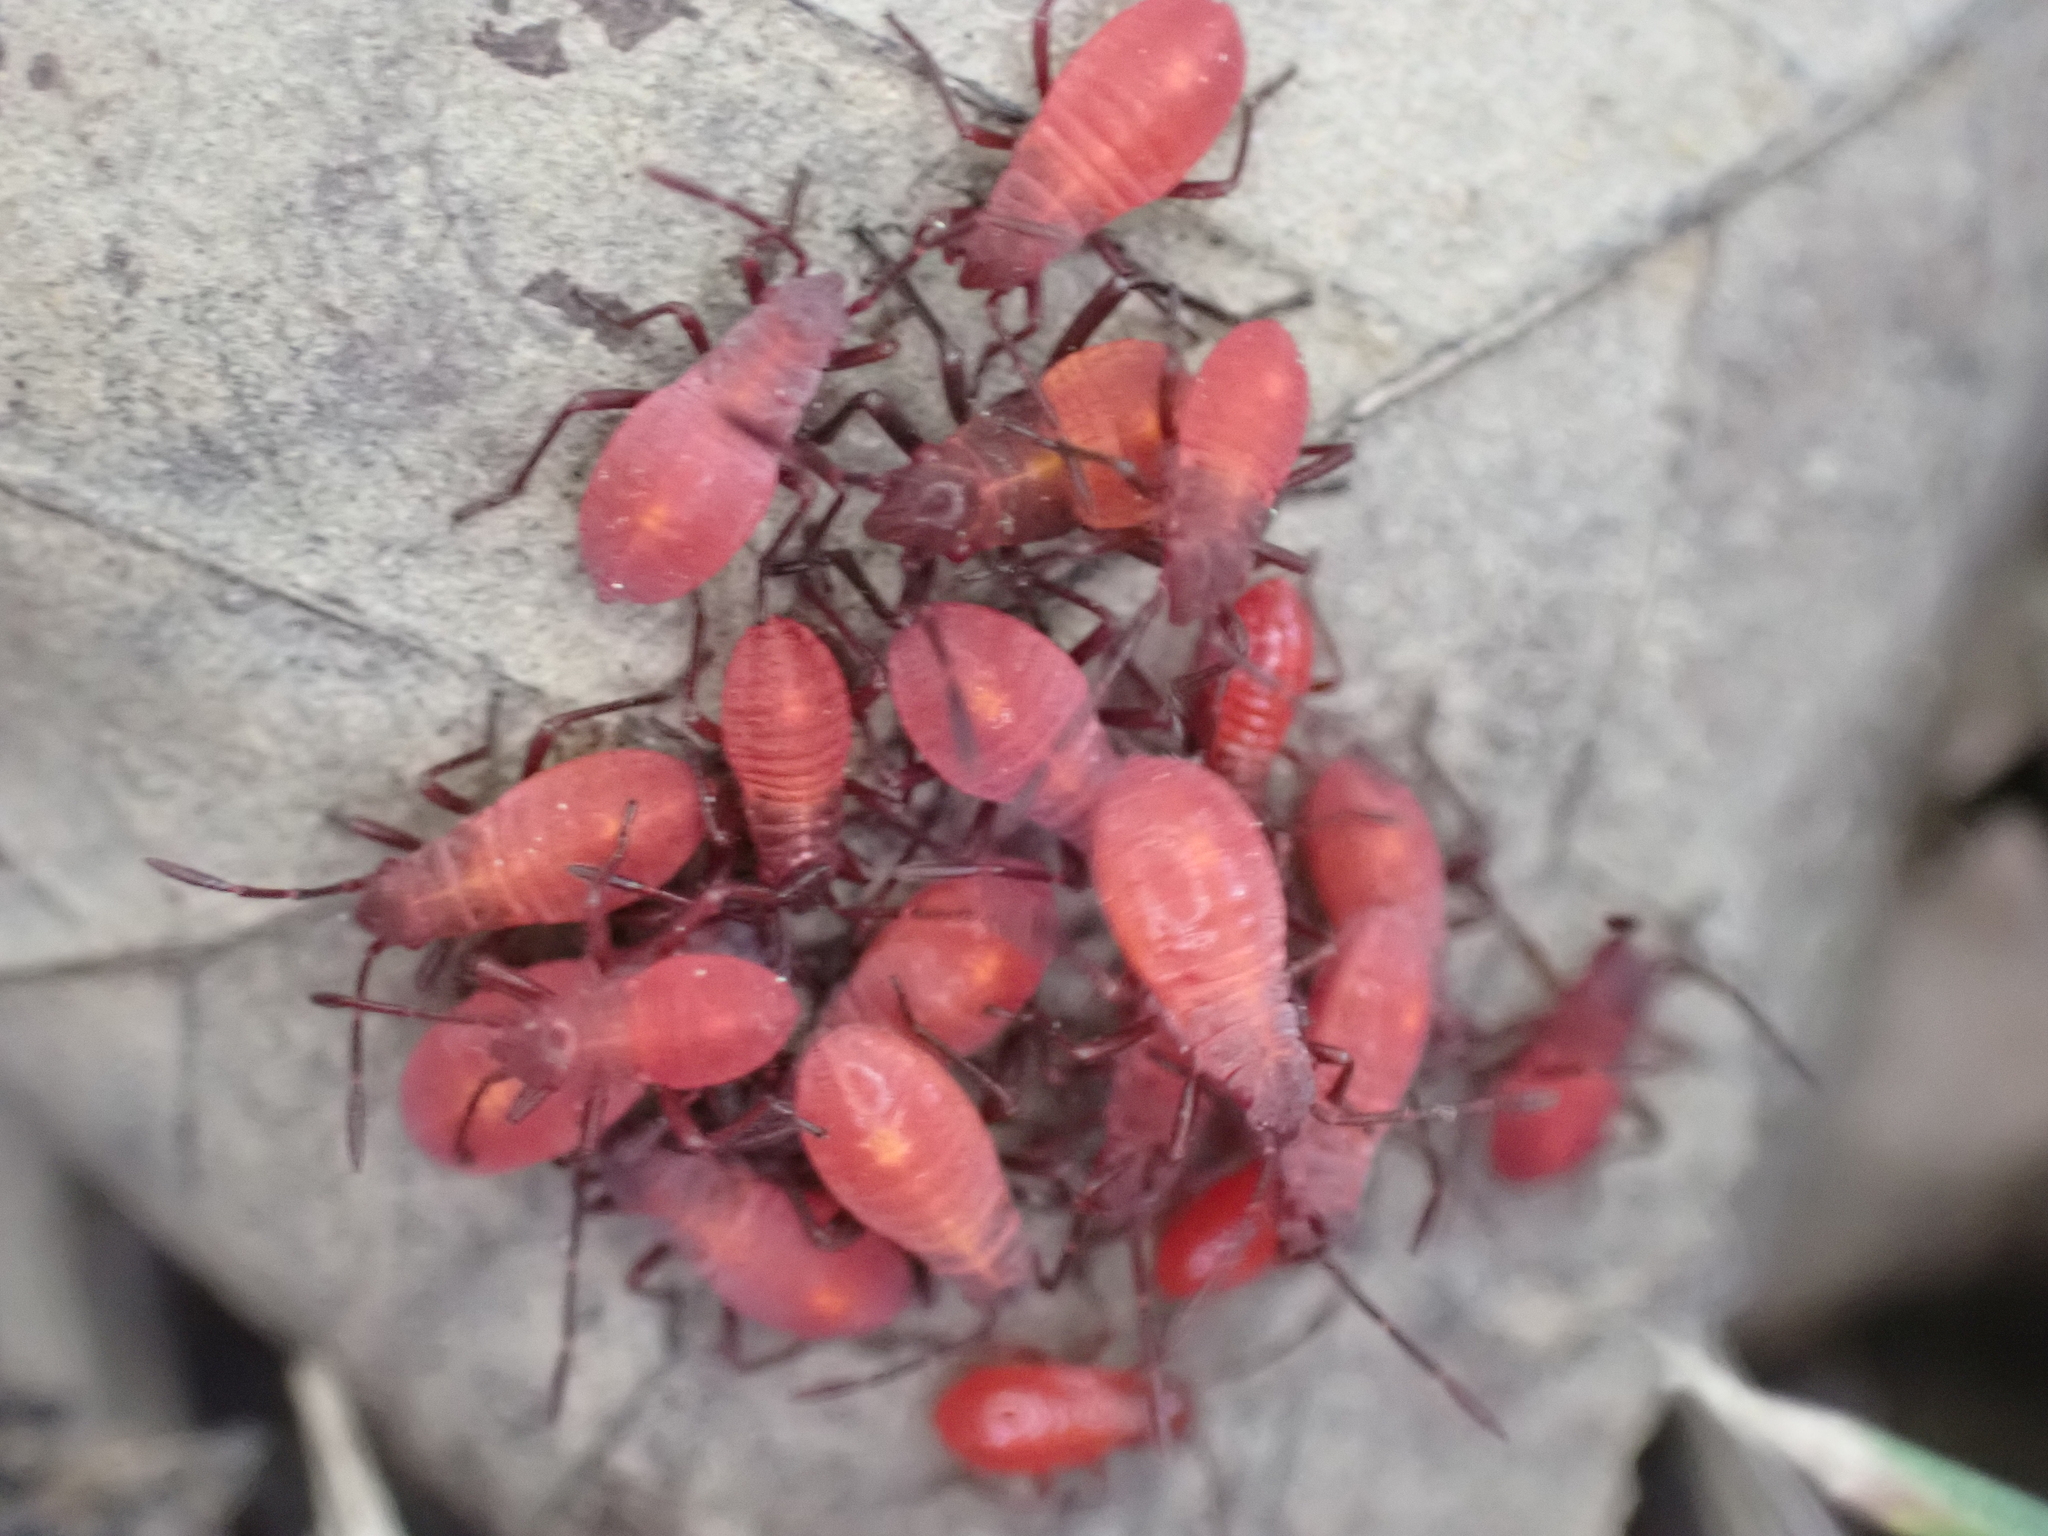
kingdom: Animalia
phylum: Arthropoda
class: Insecta
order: Hemiptera
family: Rhopalidae
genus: Boisea
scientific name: Boisea trivittata
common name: Boxelder bug
